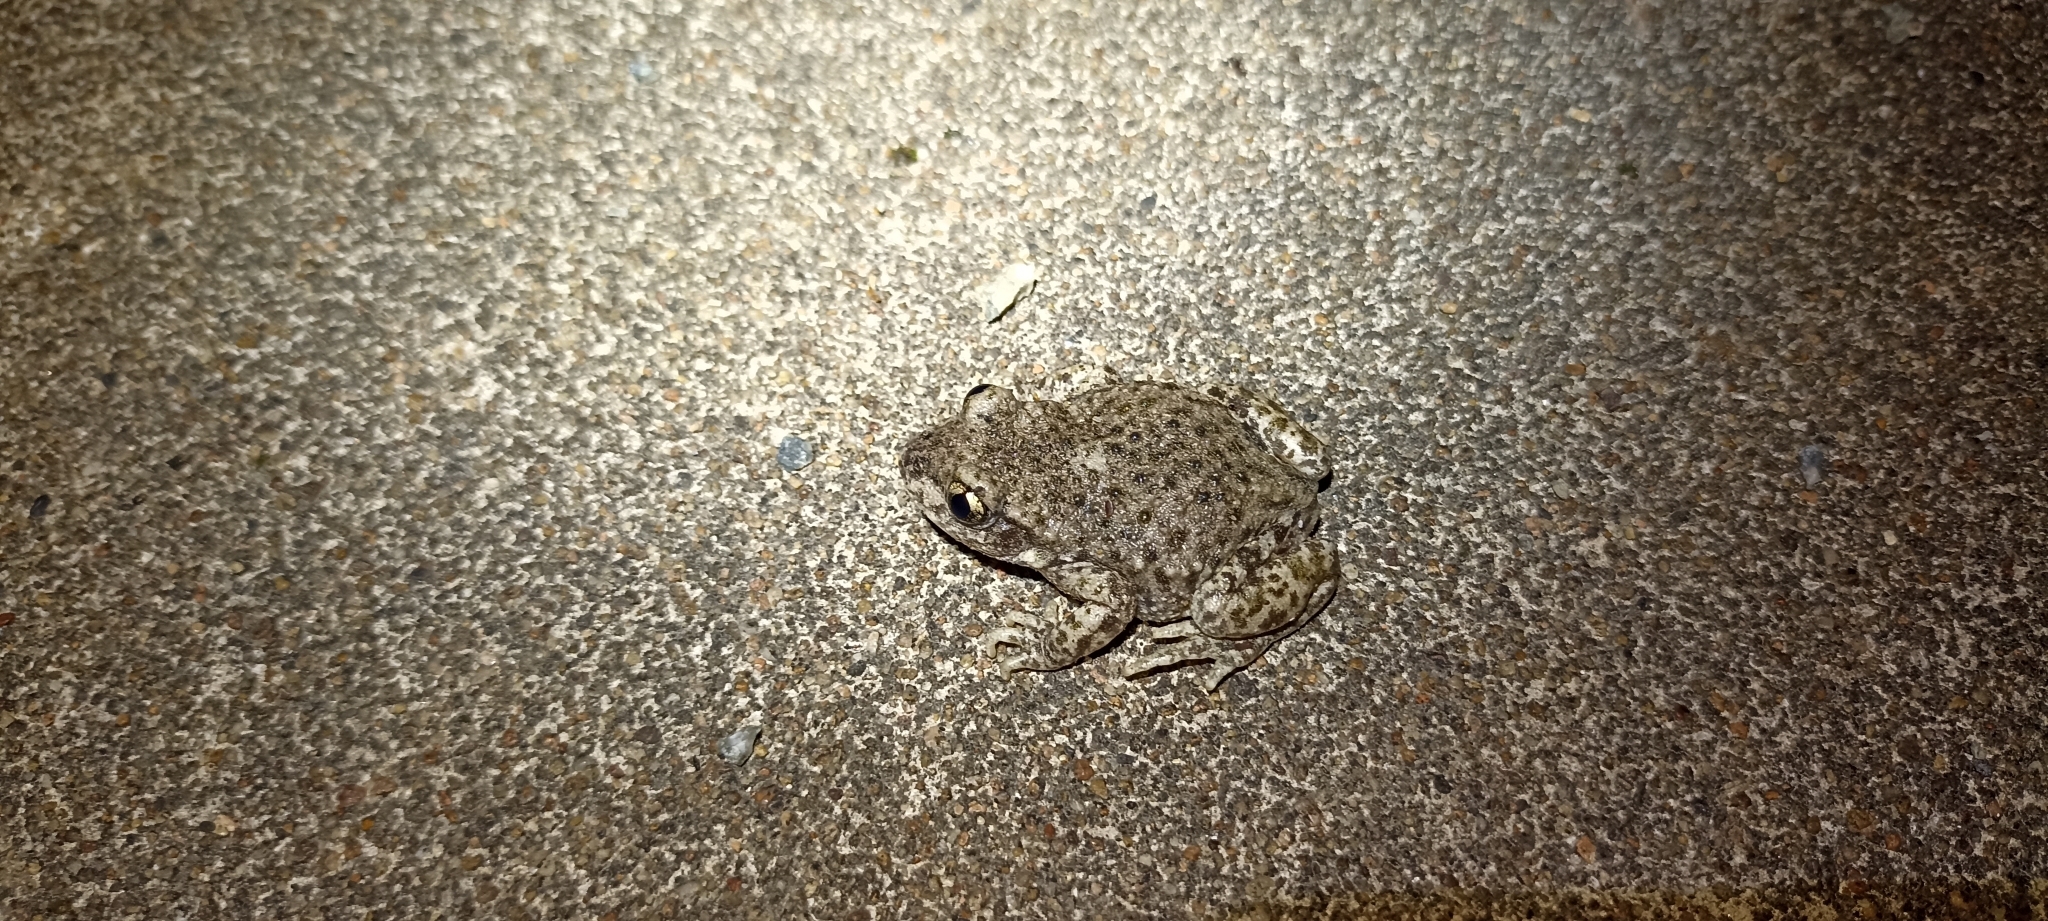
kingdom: Animalia
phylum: Chordata
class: Amphibia
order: Anura
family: Alytidae
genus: Alytes
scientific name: Alytes obstetricans
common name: Midwife toad
